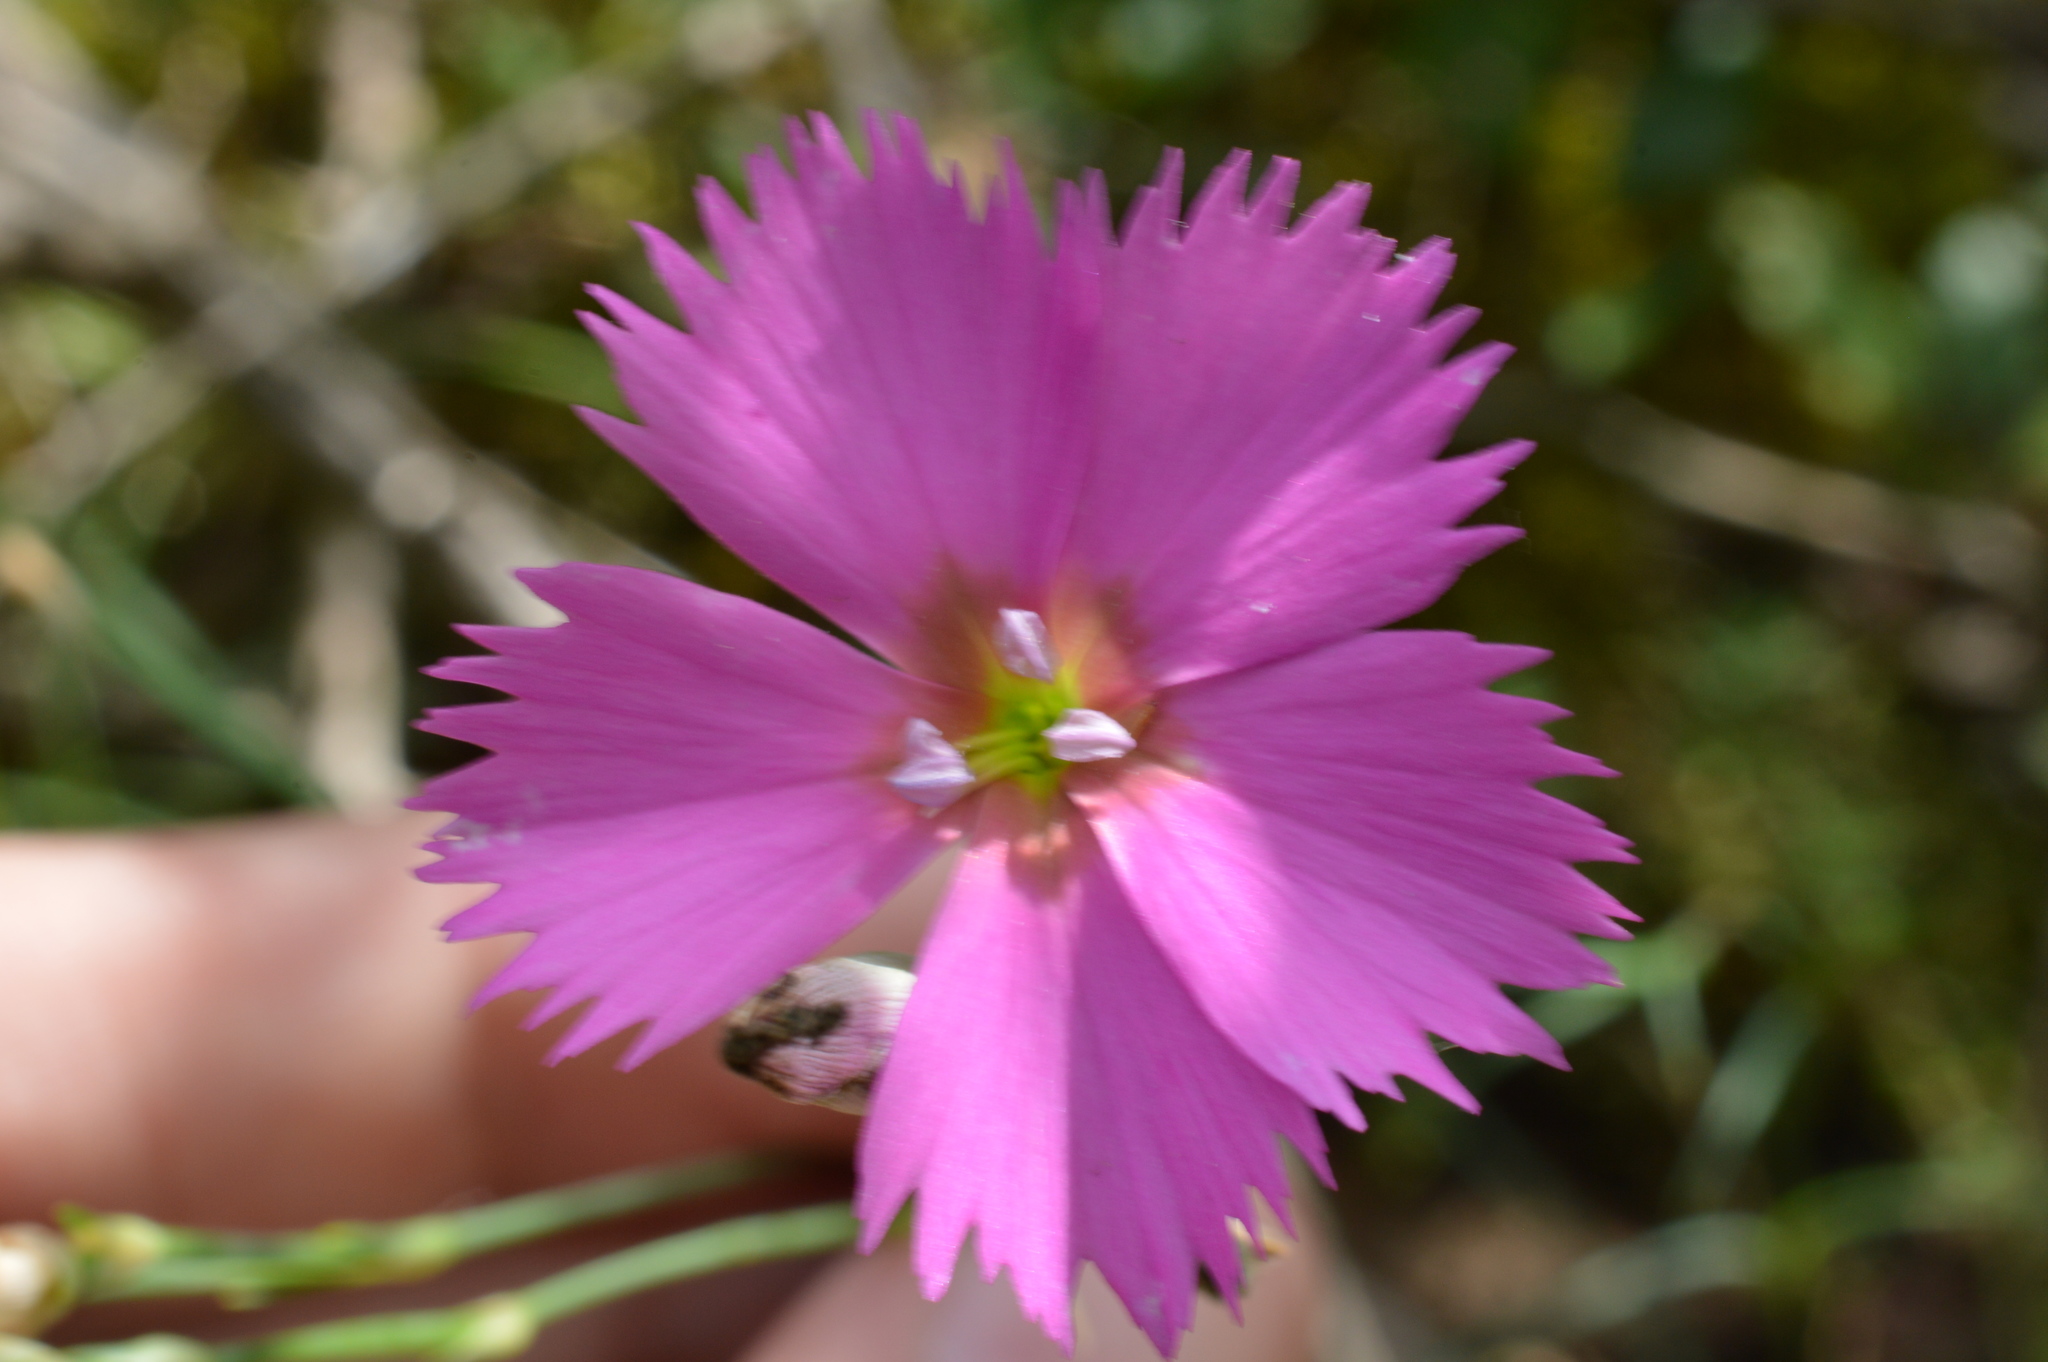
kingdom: Plantae
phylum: Tracheophyta
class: Magnoliopsida
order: Caryophyllales
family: Caryophyllaceae
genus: Dianthus
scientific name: Dianthus sylvestris
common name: Wood pink
